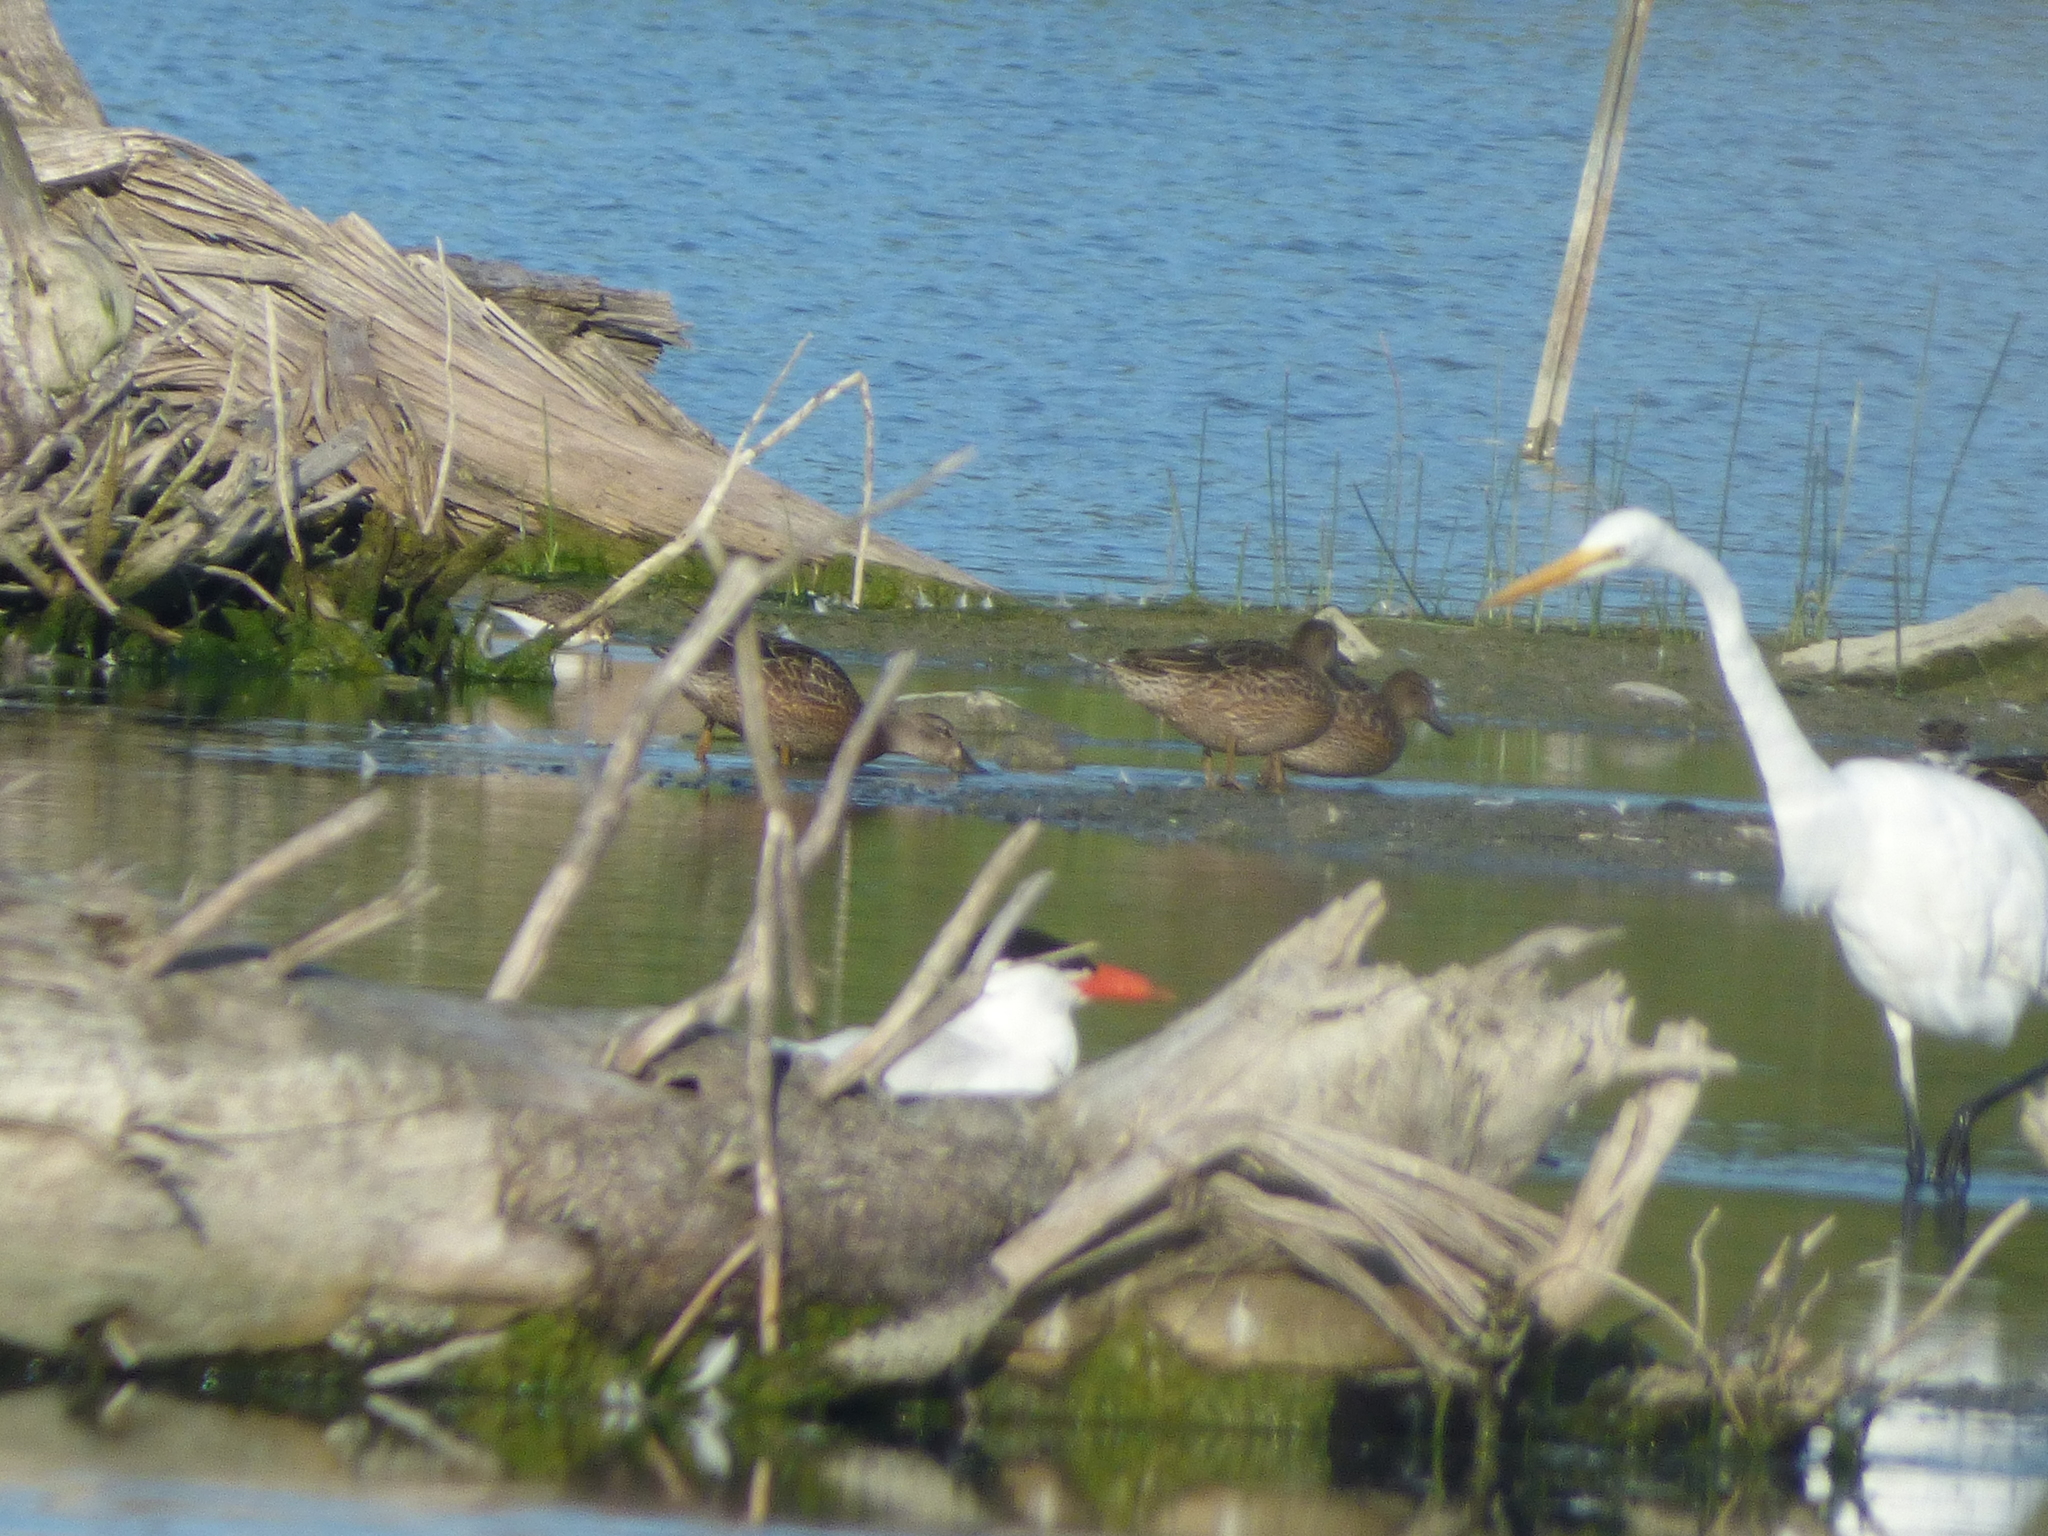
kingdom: Animalia
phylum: Chordata
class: Aves
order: Pelecaniformes
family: Ardeidae
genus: Ardea
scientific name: Ardea alba
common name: Great egret
